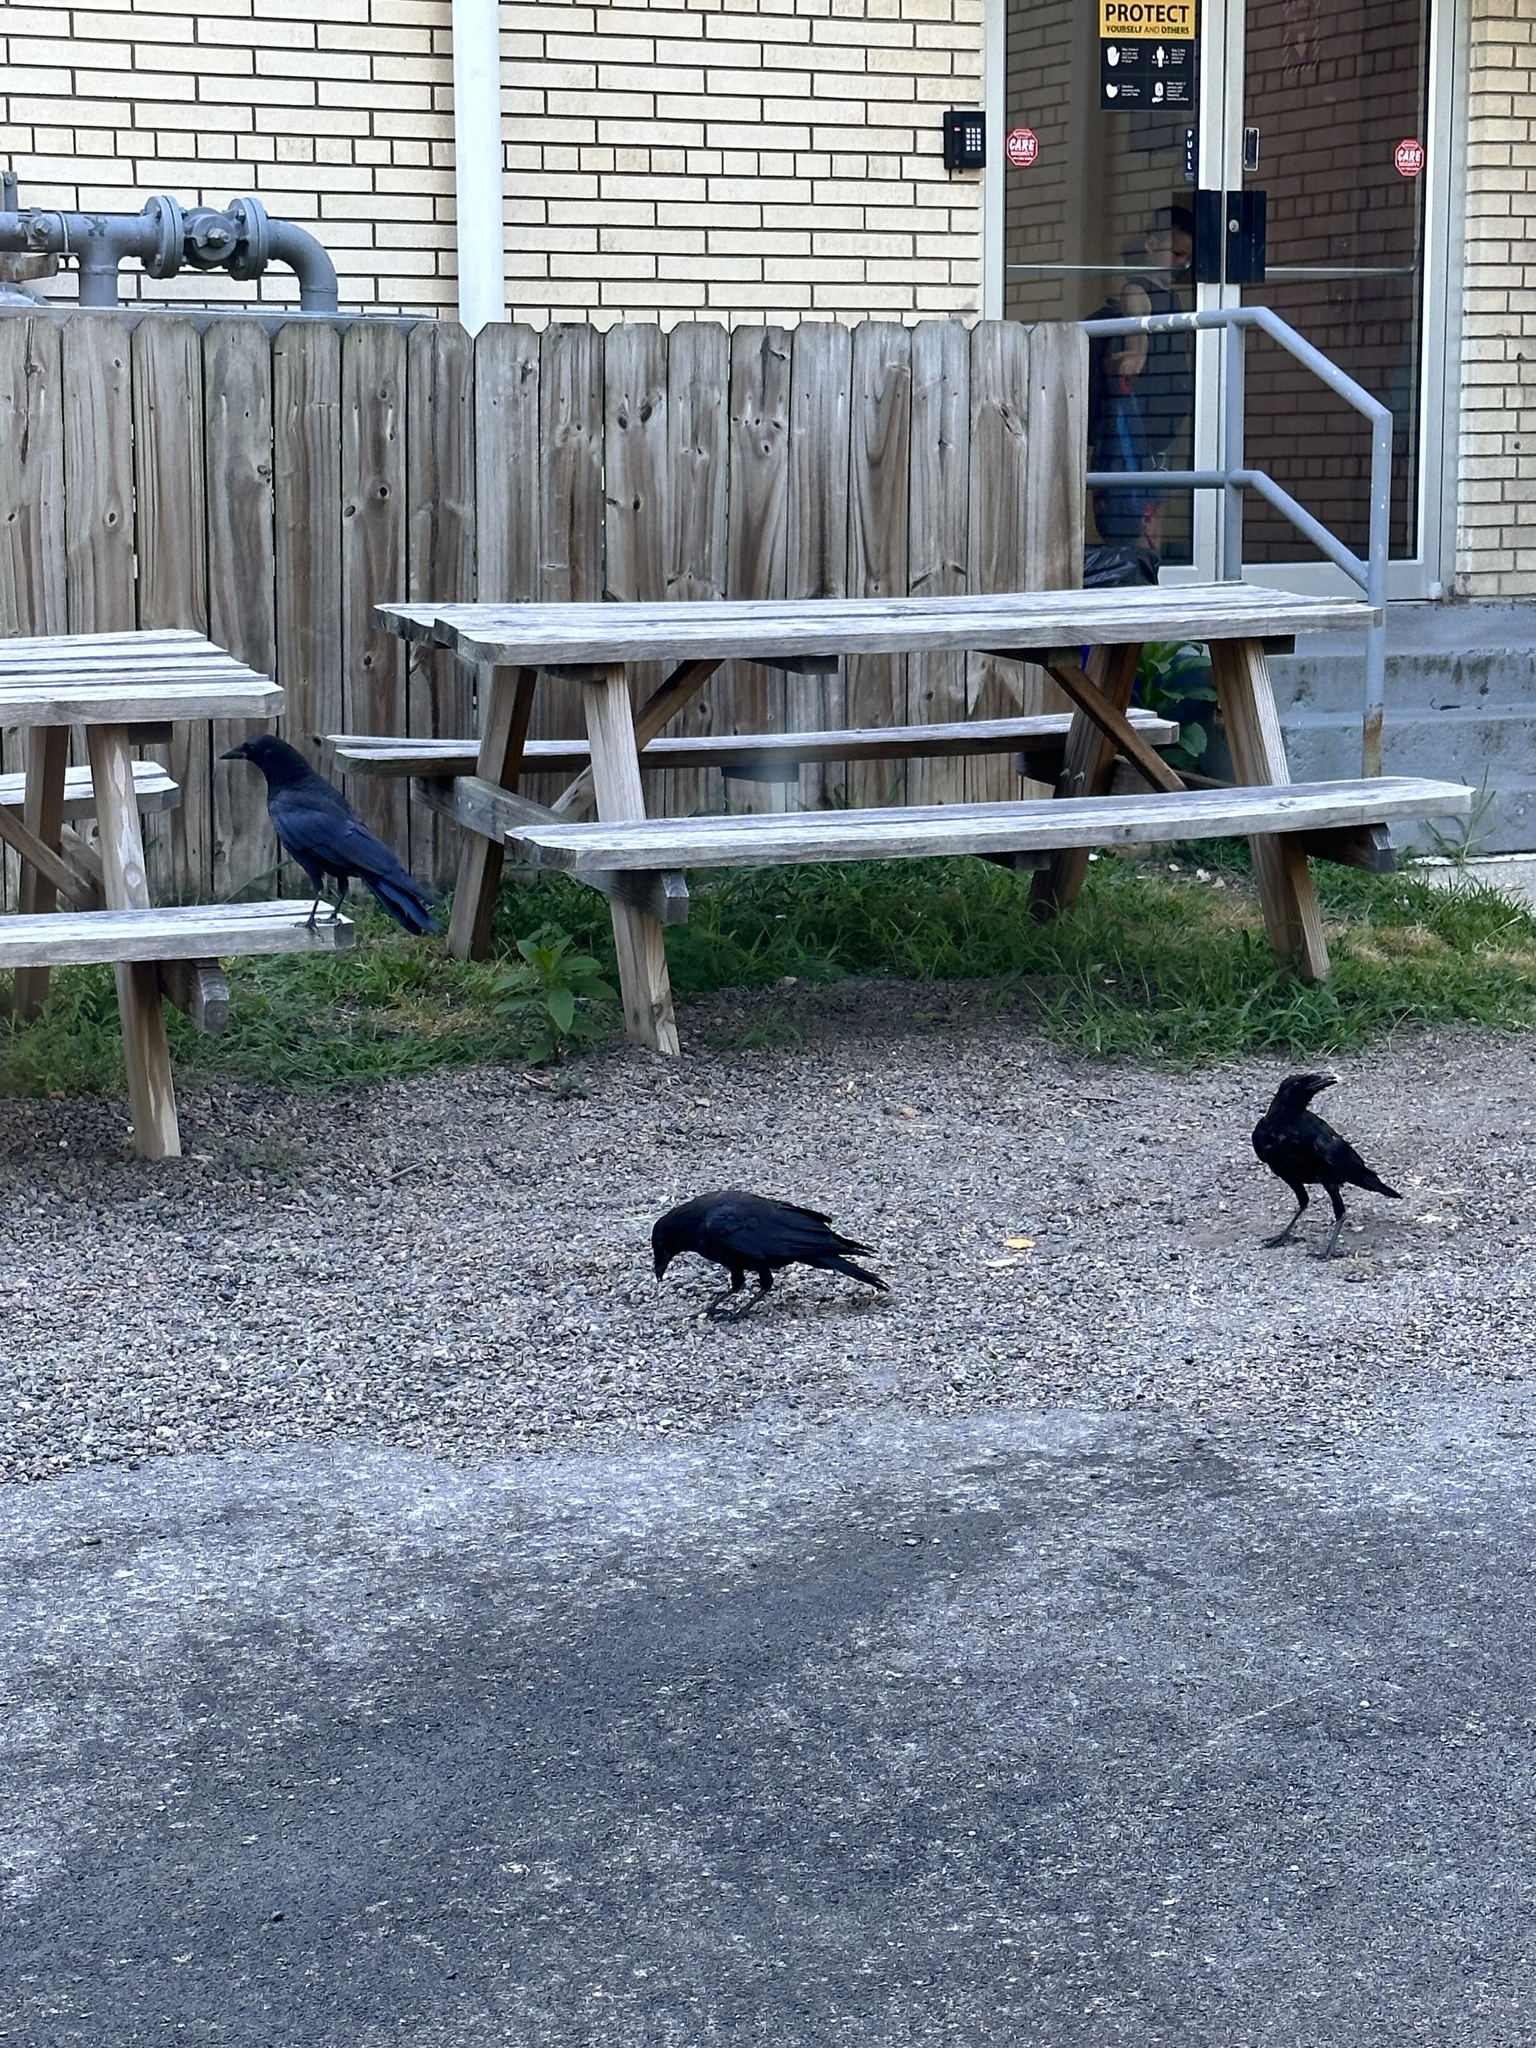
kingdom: Animalia
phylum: Chordata
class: Aves
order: Passeriformes
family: Corvidae
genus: Corvus
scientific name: Corvus brachyrhynchos
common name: American crow
